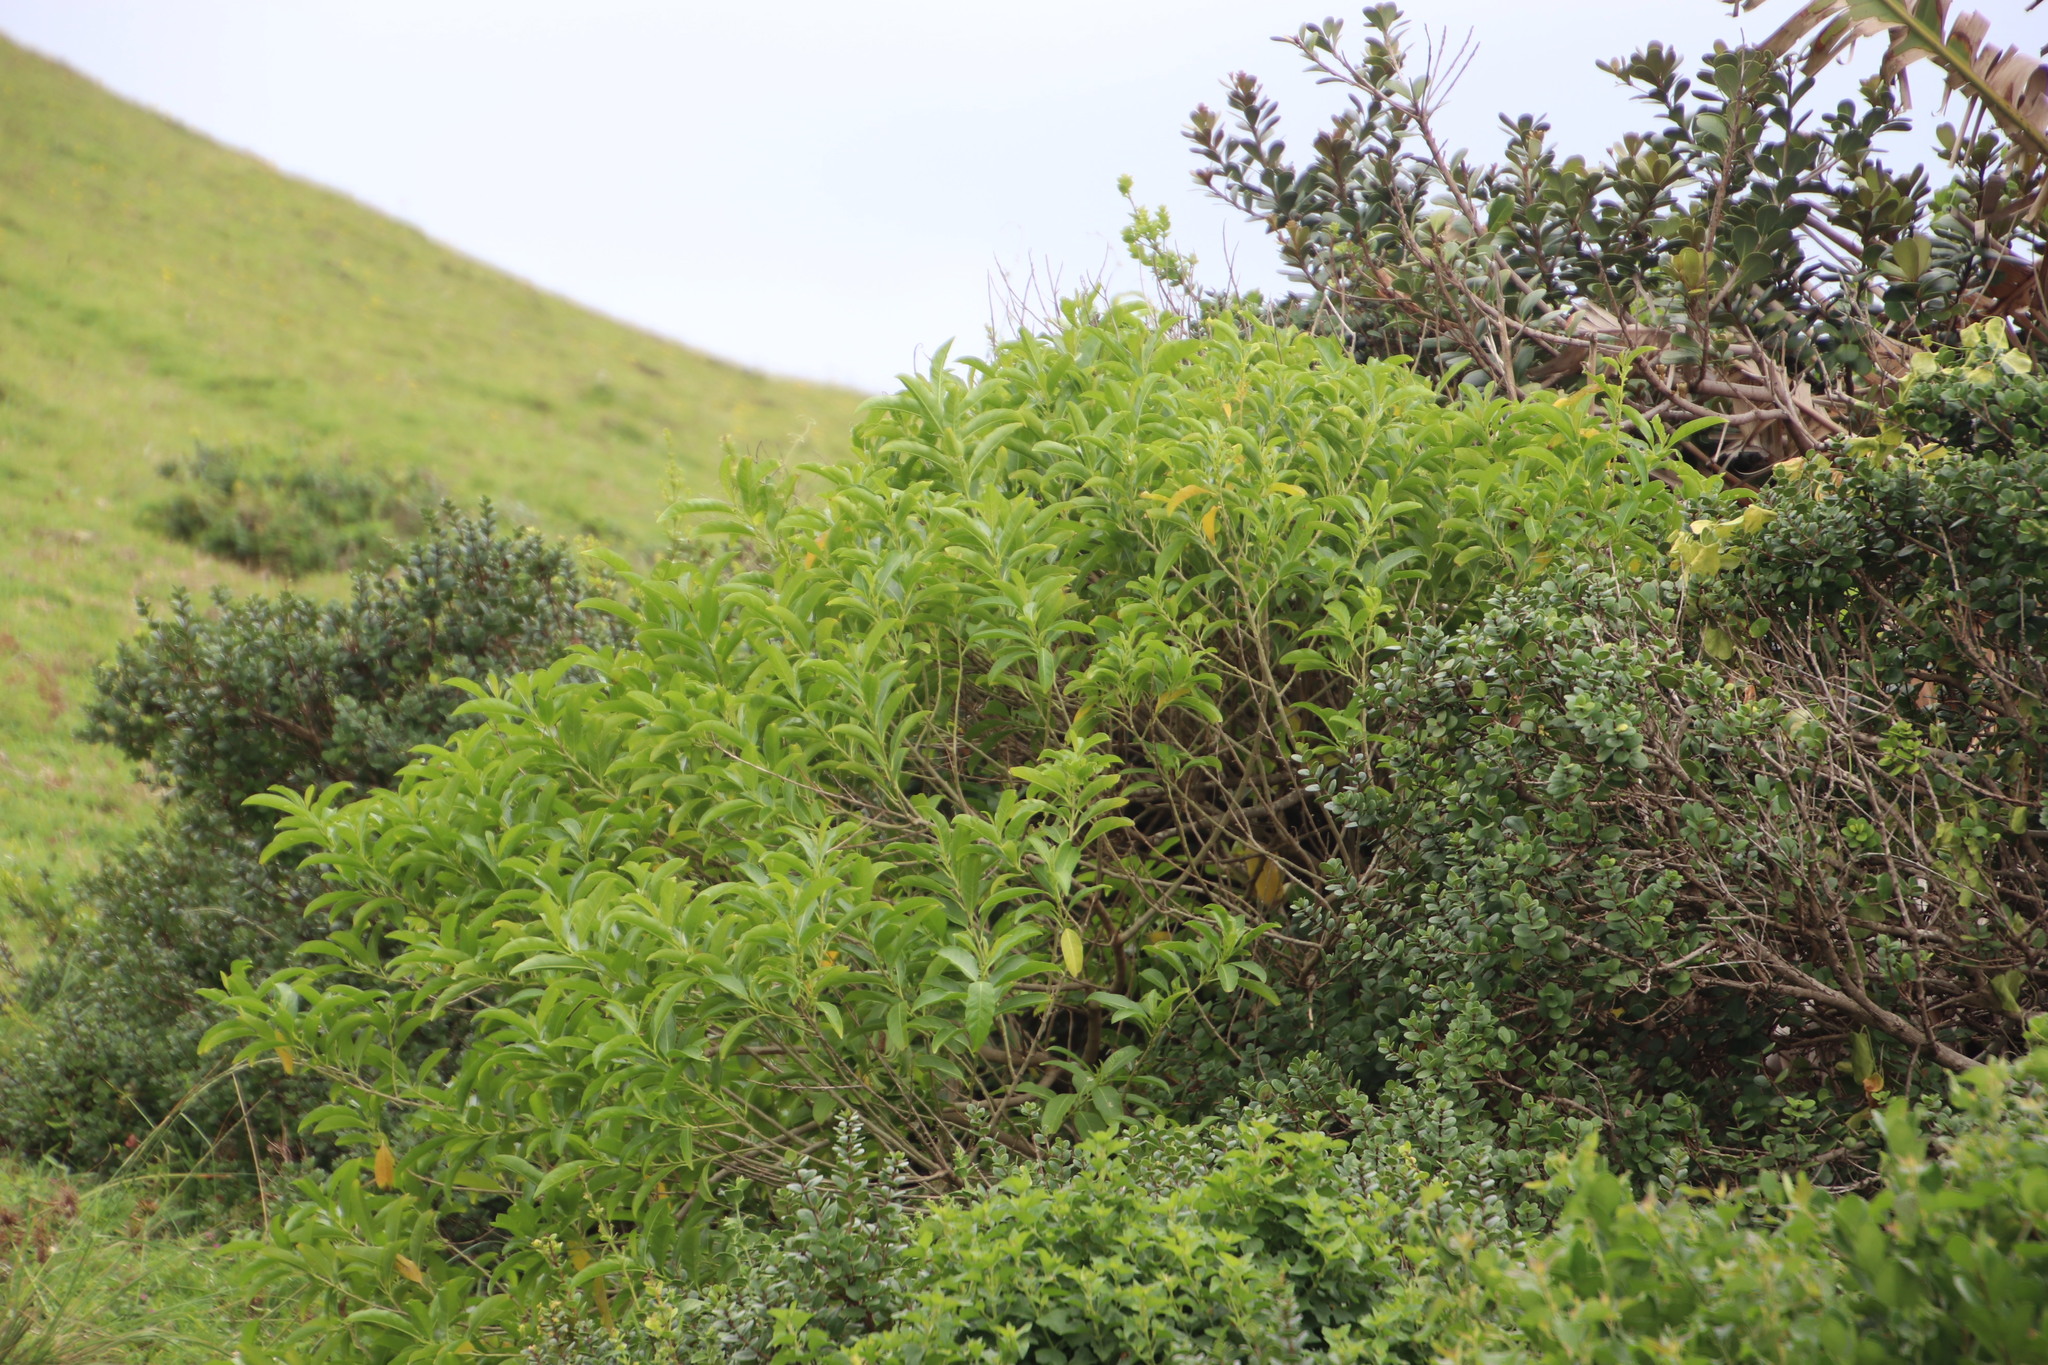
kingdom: Plantae
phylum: Tracheophyta
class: Magnoliopsida
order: Solanales
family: Solanaceae
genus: Cestrum
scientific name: Cestrum laevigatum
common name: Inkberry
